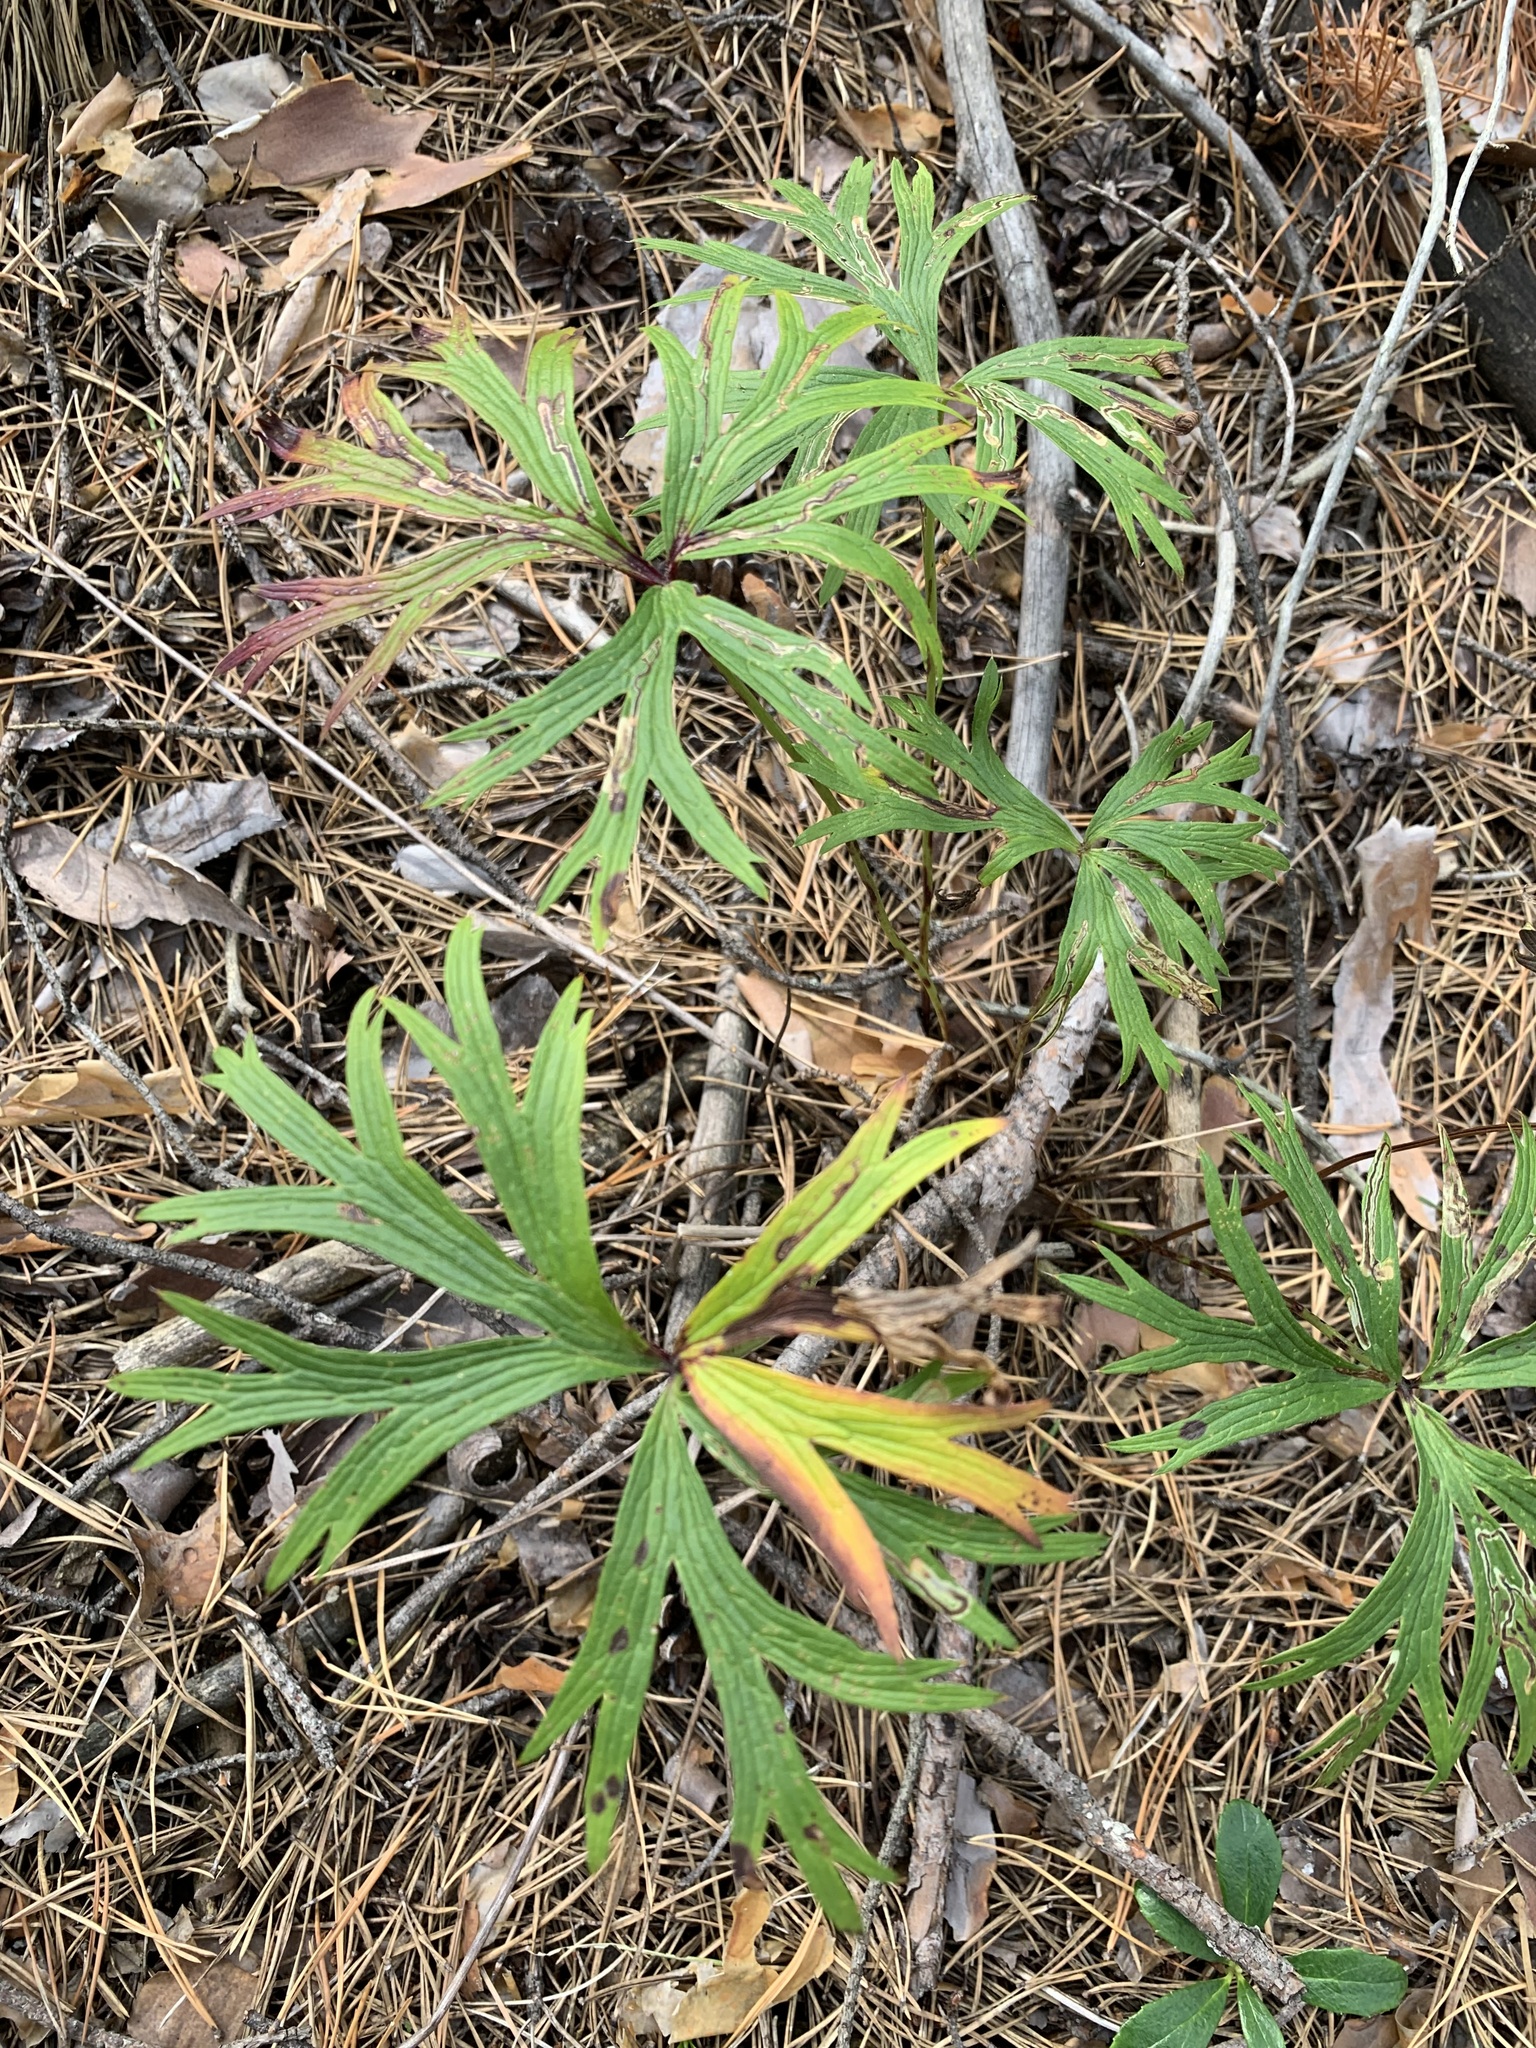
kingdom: Plantae
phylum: Tracheophyta
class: Magnoliopsida
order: Ranunculales
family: Ranunculaceae
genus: Pulsatilla
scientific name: Pulsatilla patens
